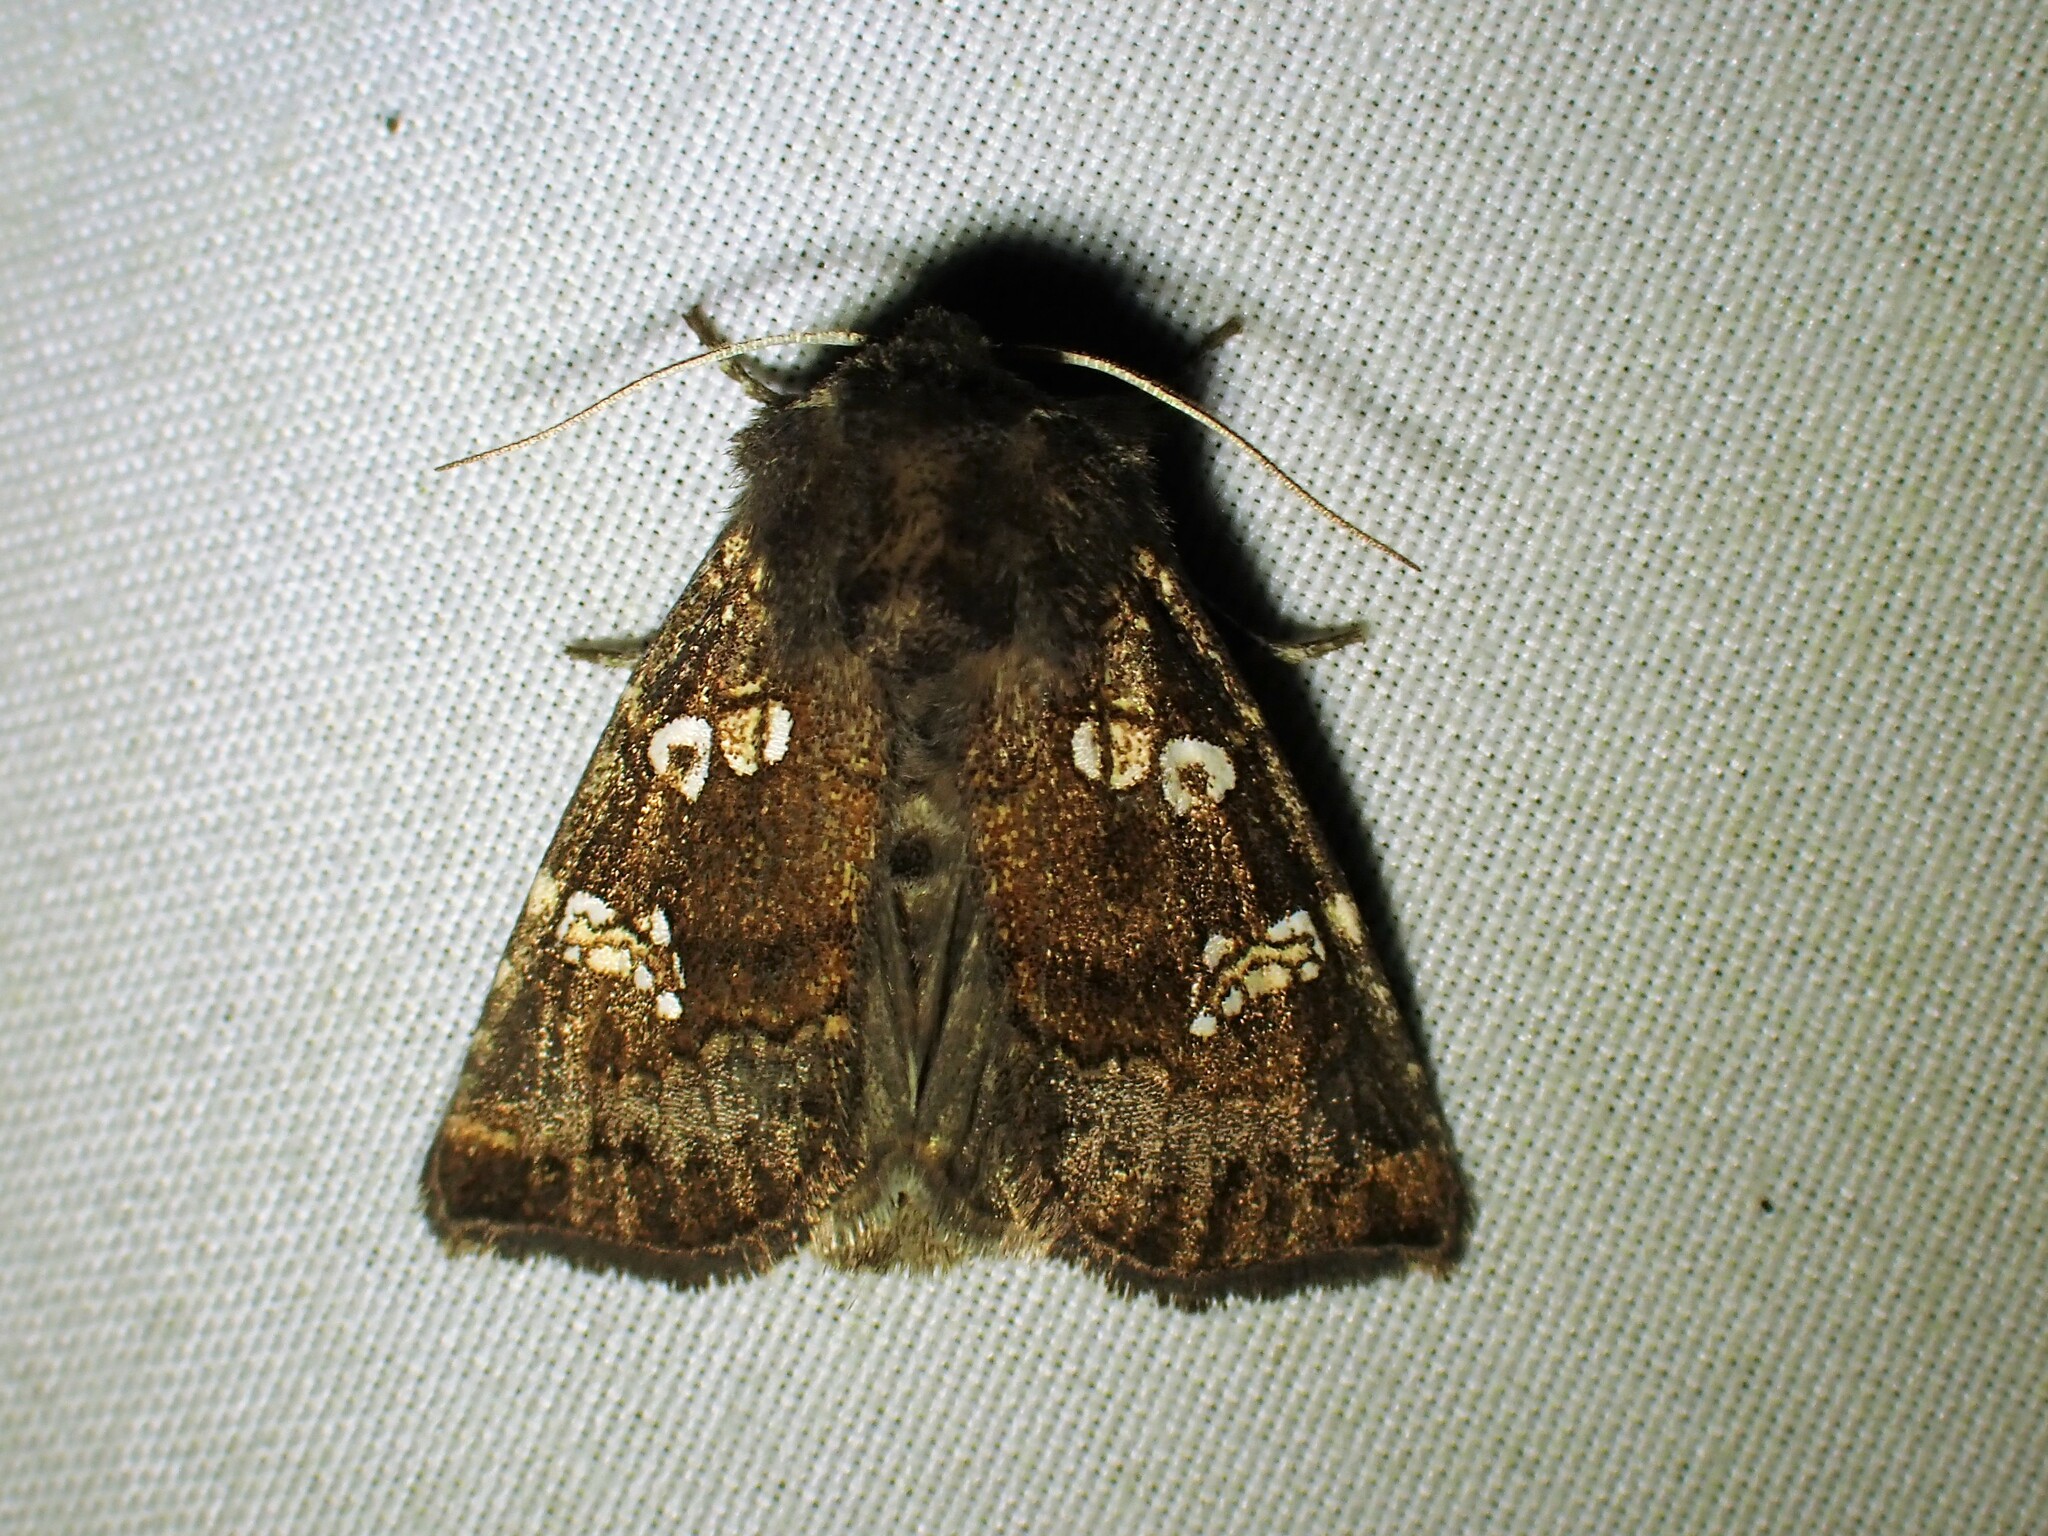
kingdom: Animalia
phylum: Arthropoda
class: Insecta
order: Lepidoptera
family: Noctuidae
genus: Papaipema
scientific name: Papaipema unimoda
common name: Meadow rue borer moth
